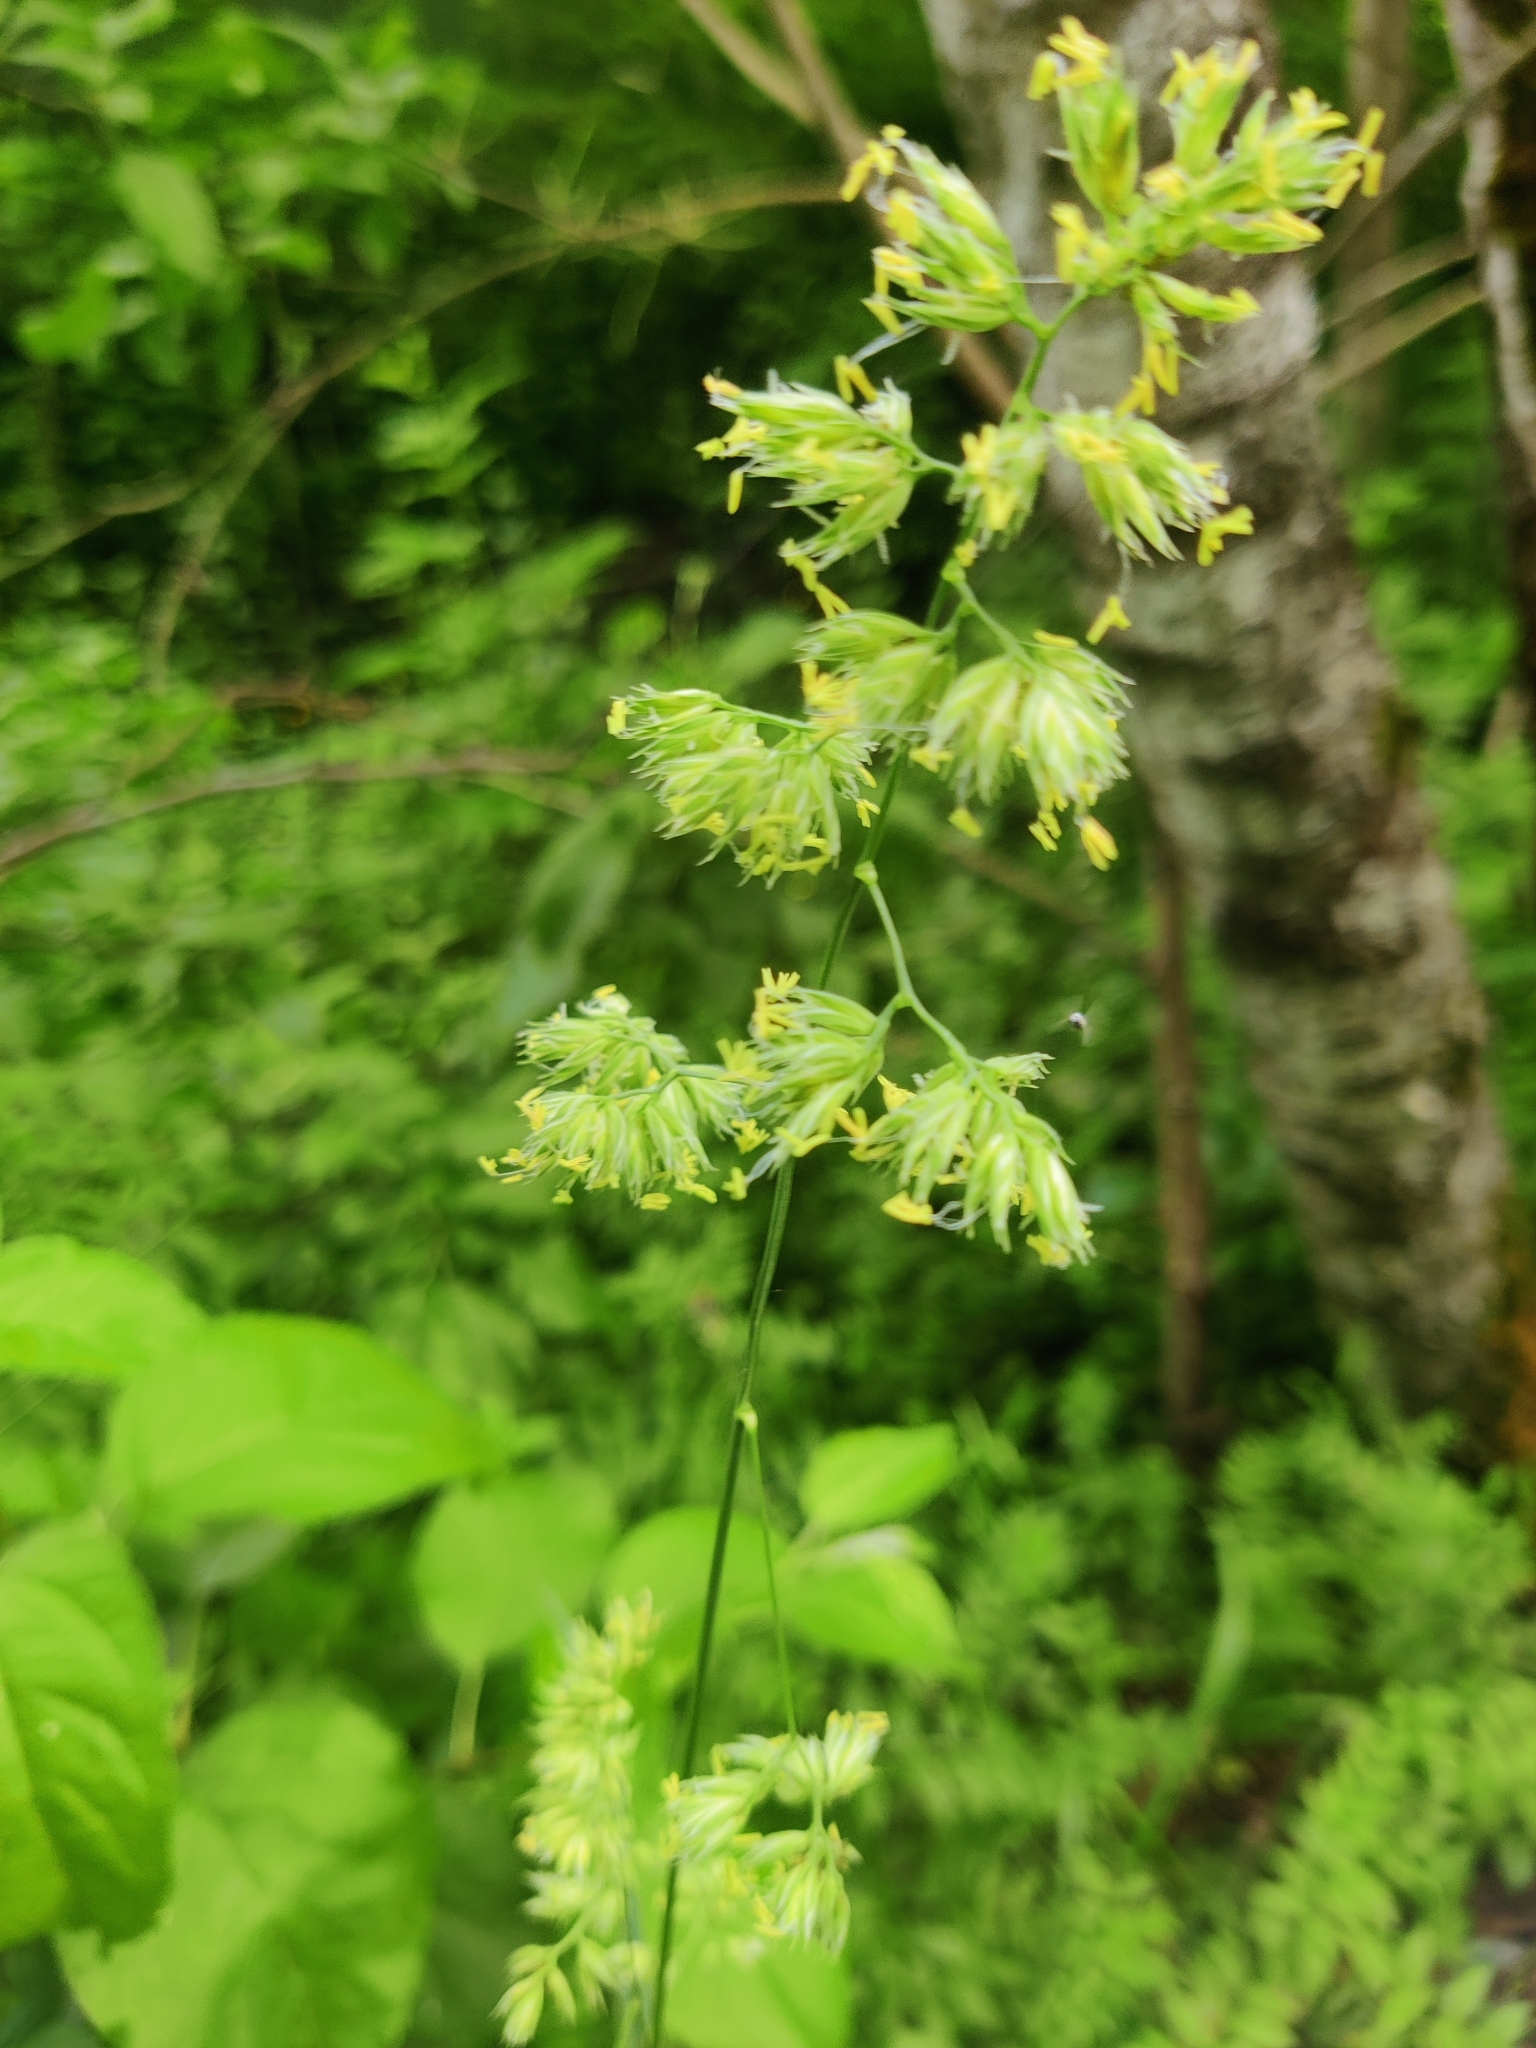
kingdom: Plantae
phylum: Tracheophyta
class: Liliopsida
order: Poales
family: Poaceae
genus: Dactylis
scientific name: Dactylis glomerata
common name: Orchardgrass
